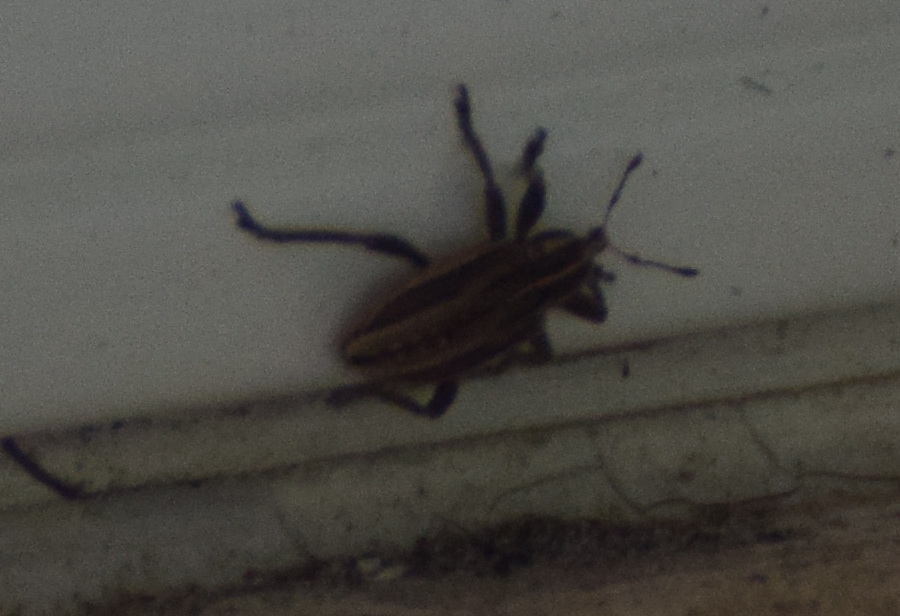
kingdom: Animalia
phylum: Arthropoda
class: Insecta
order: Coleoptera
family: Curculionidae
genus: Hypera
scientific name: Hypera arator
